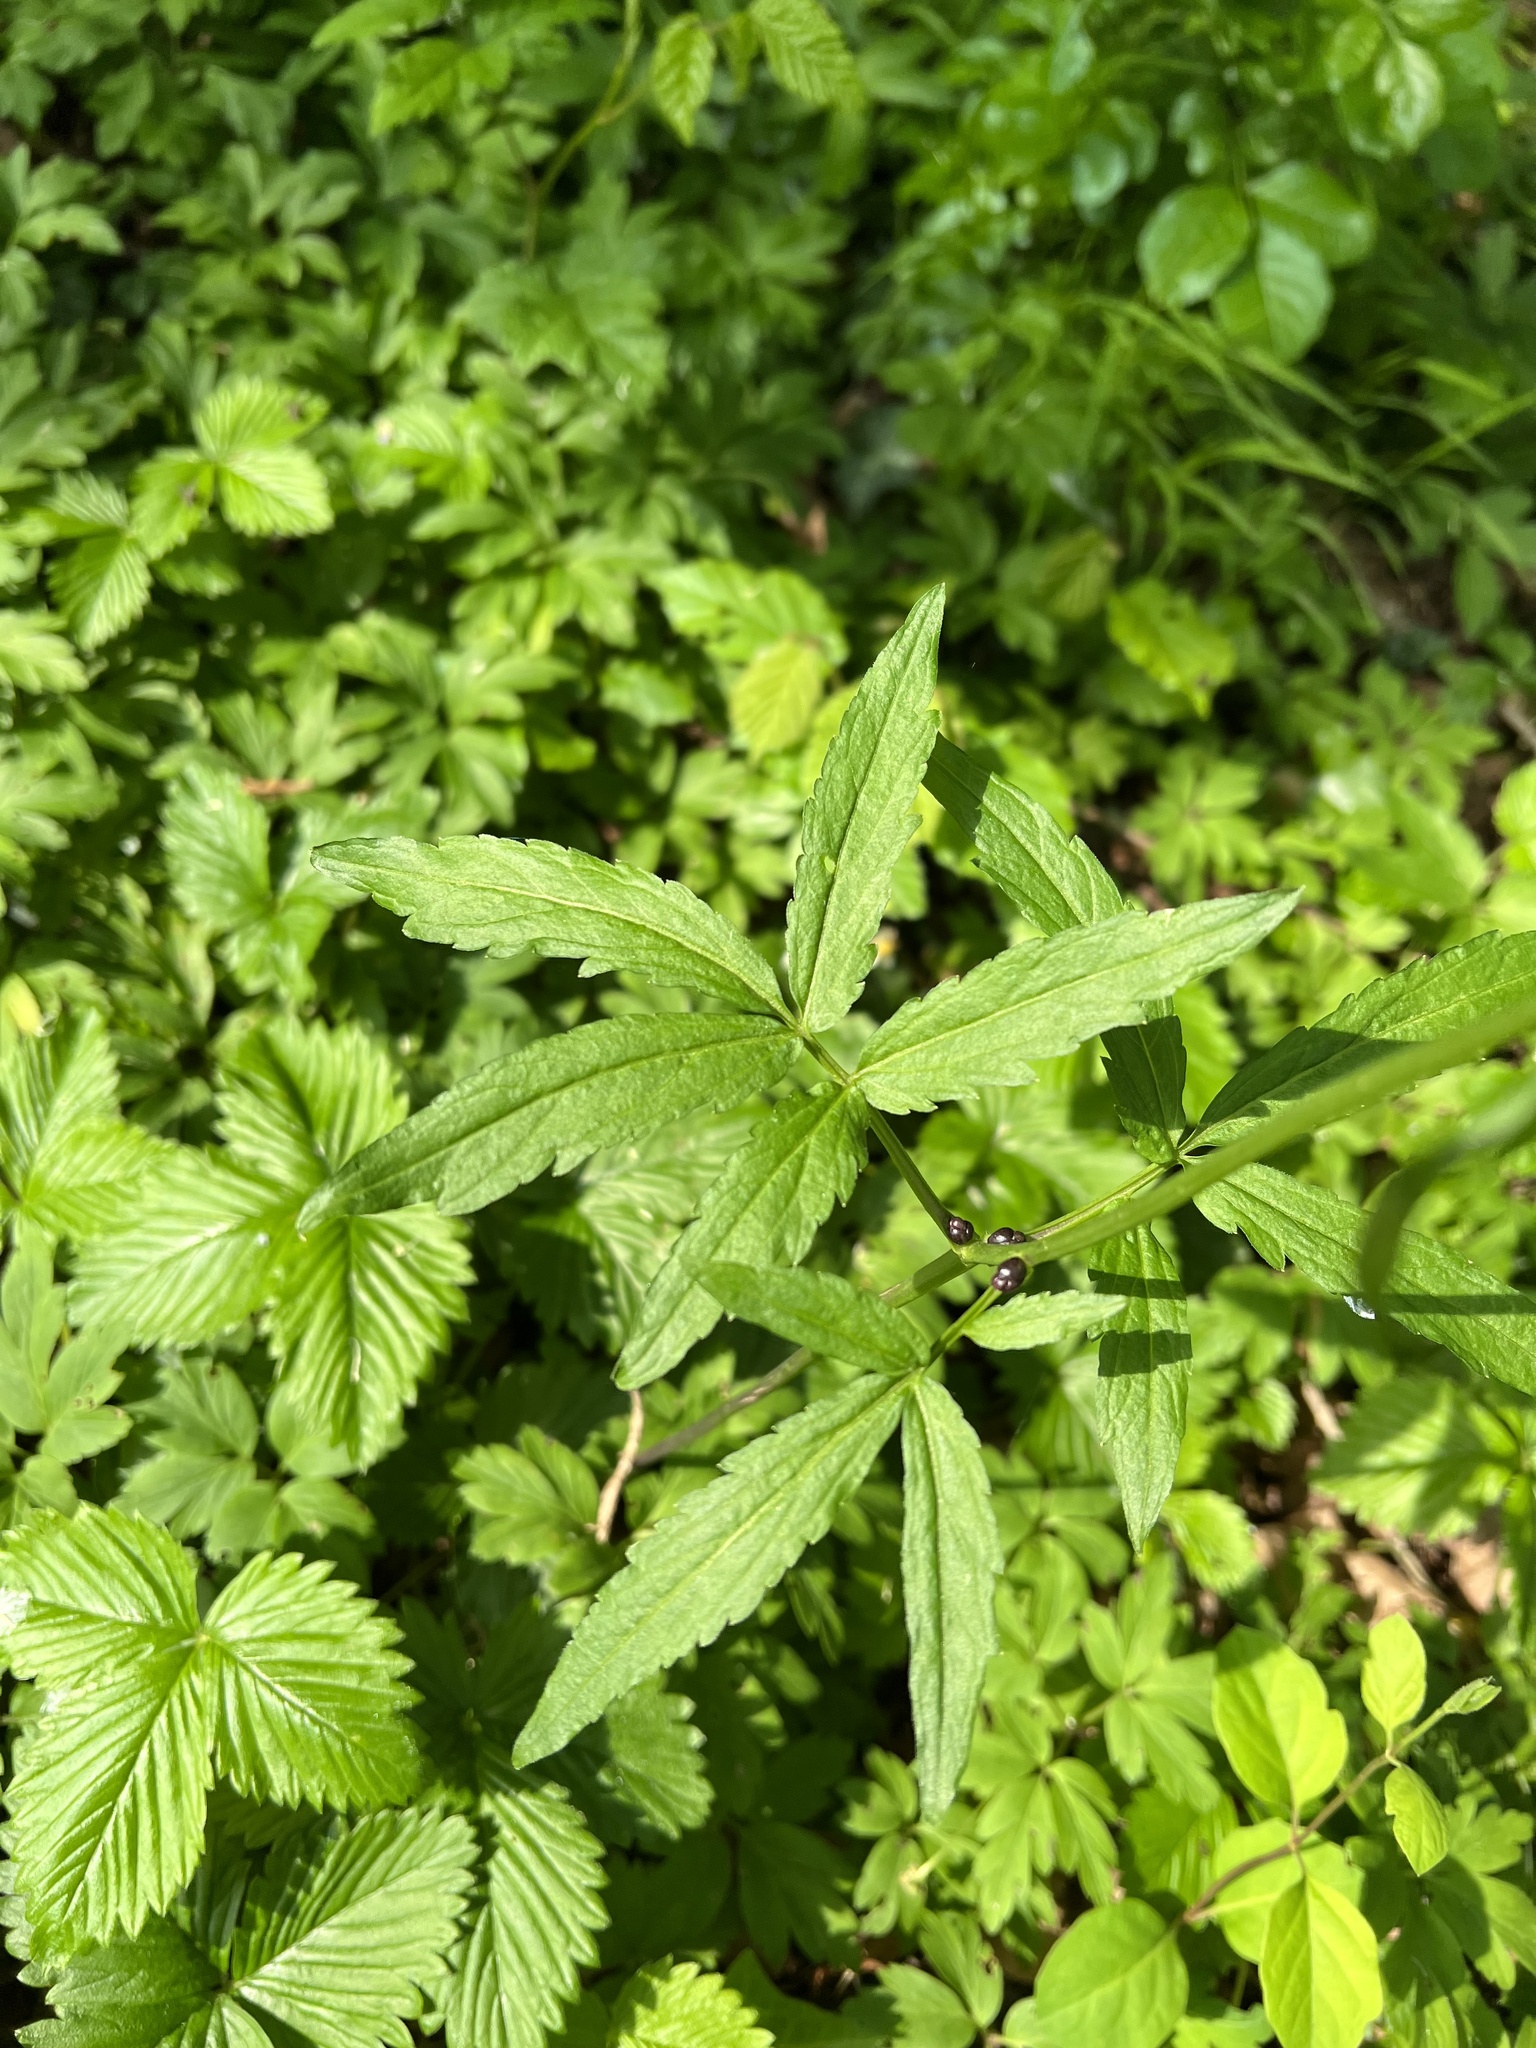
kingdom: Plantae
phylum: Tracheophyta
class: Magnoliopsida
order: Brassicales
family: Brassicaceae
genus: Cardamine
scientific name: Cardamine bulbifera
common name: Coralroot bittercress
